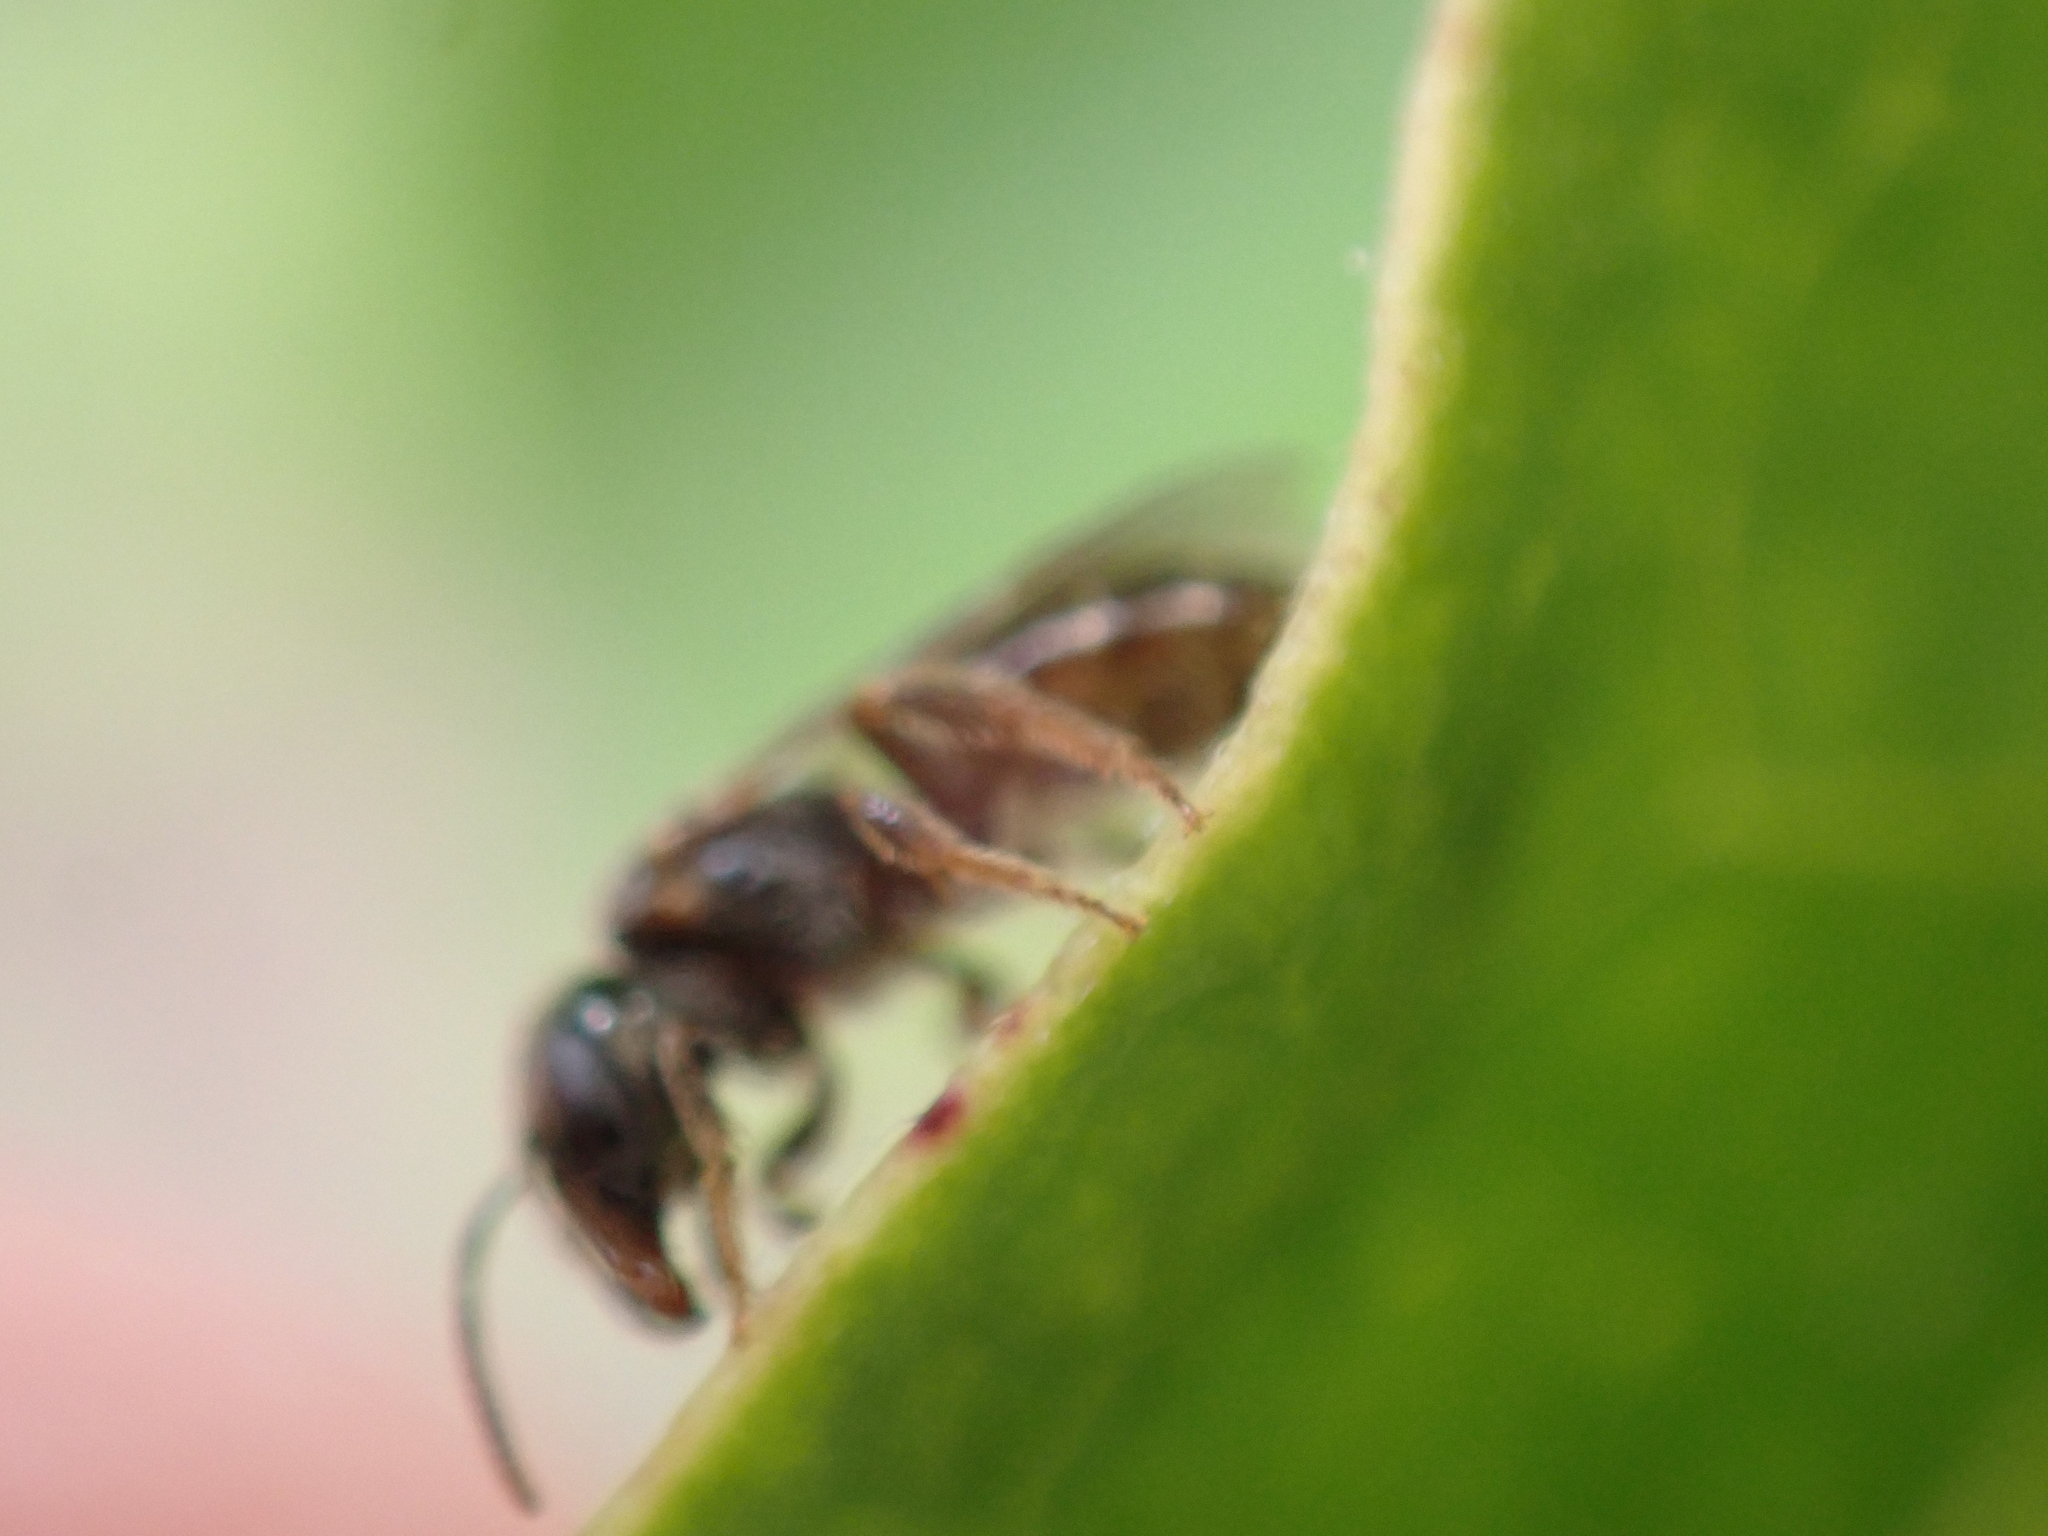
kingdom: Animalia
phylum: Arthropoda
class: Insecta
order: Hymenoptera
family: Halictidae
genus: Lasioglossum
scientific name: Lasioglossum lionotum
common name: Smooth-backed sweat bee
